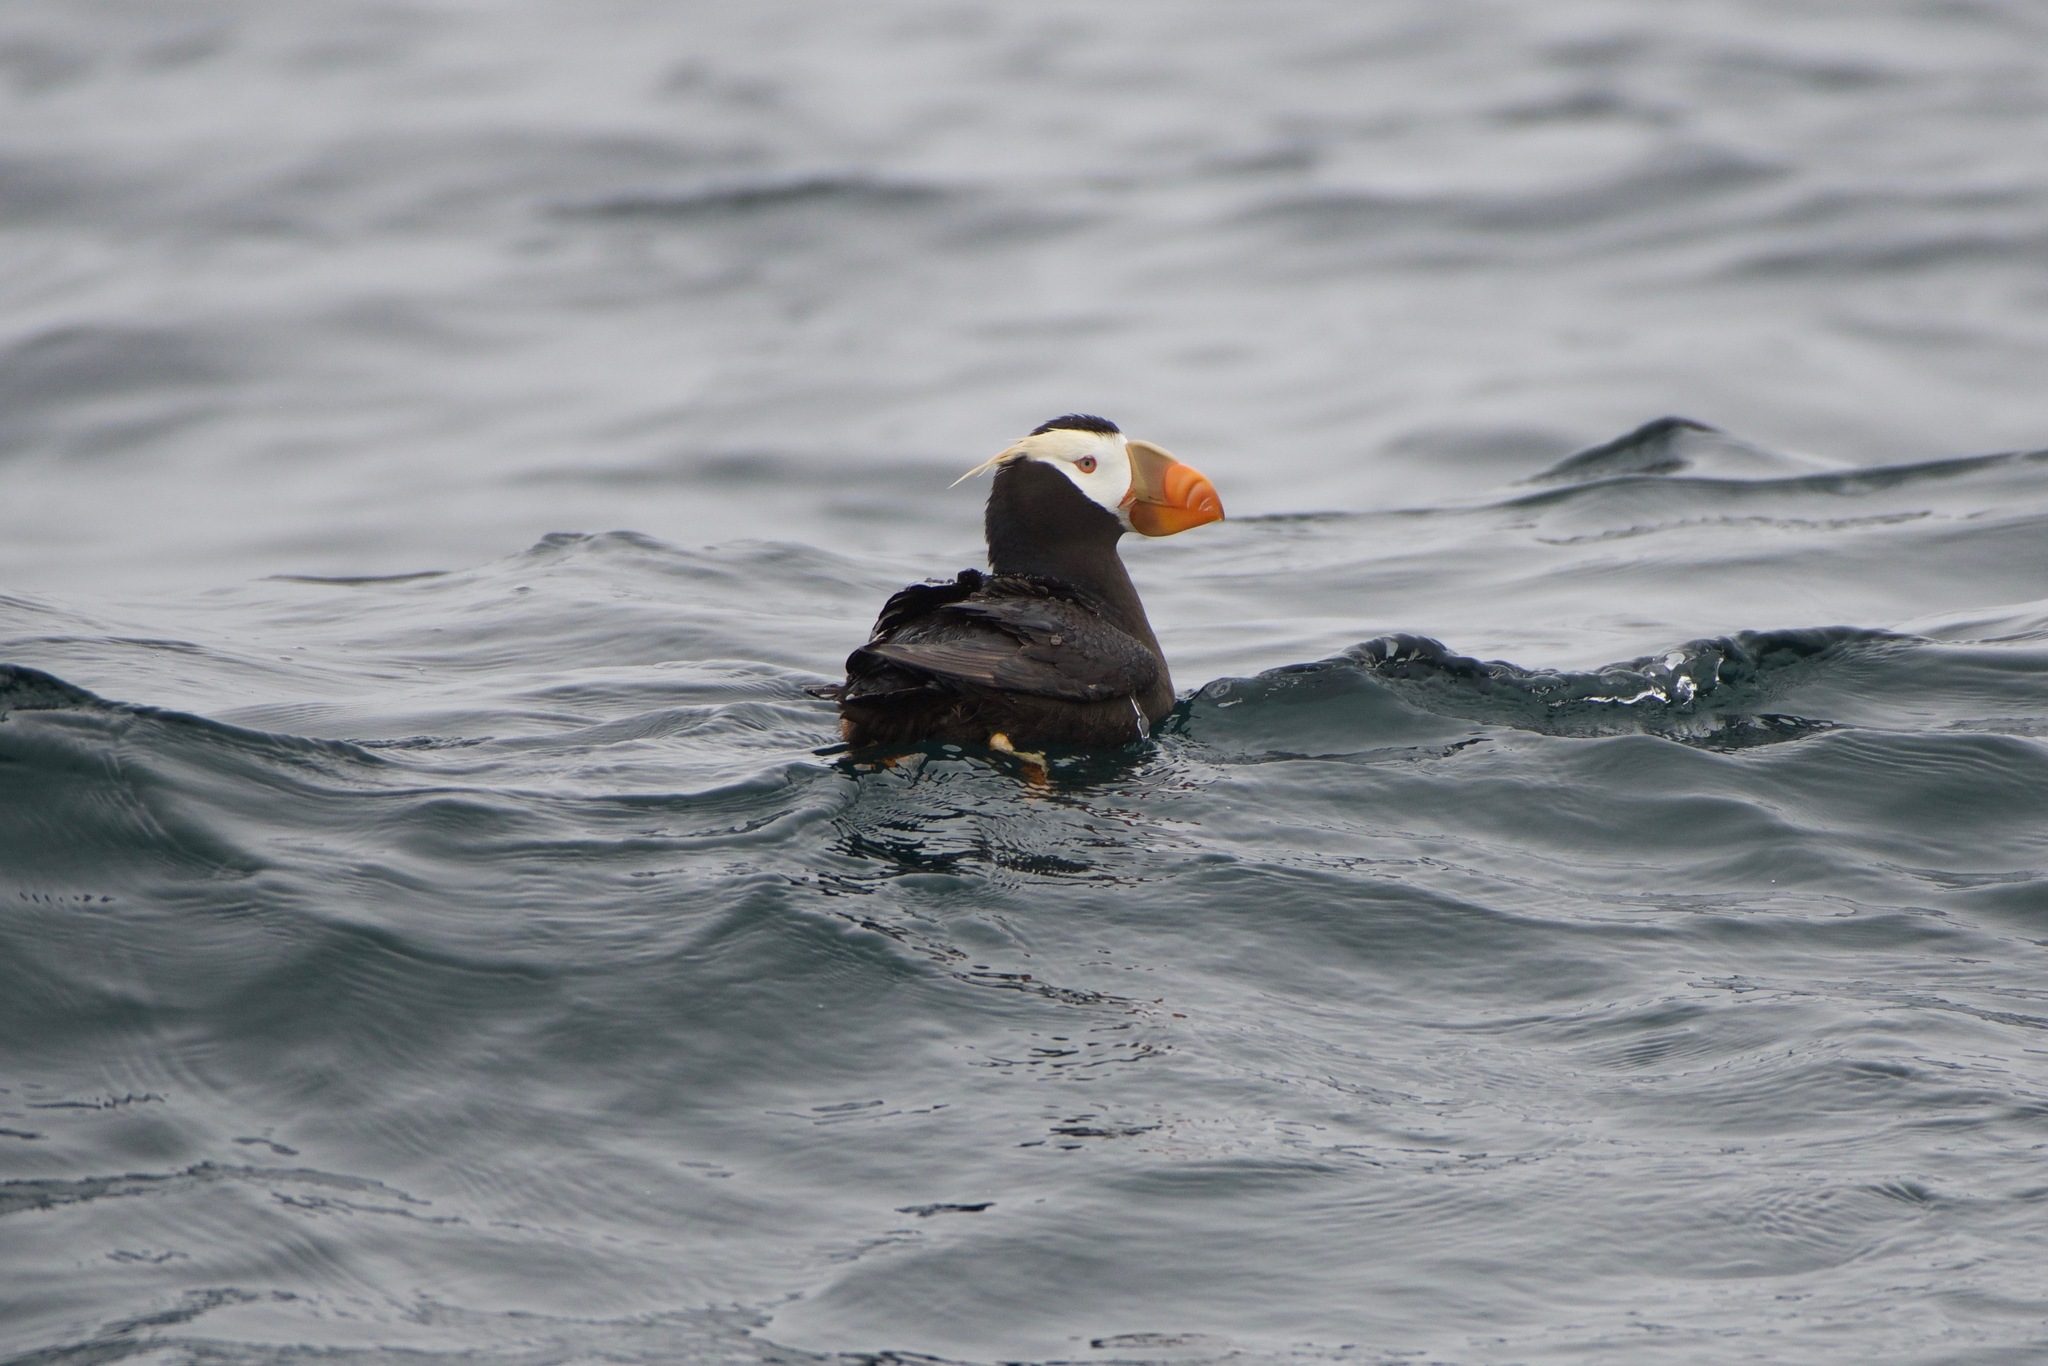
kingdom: Animalia
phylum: Chordata
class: Aves
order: Charadriiformes
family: Alcidae
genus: Fratercula
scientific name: Fratercula cirrhata
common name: Tufted puffin
